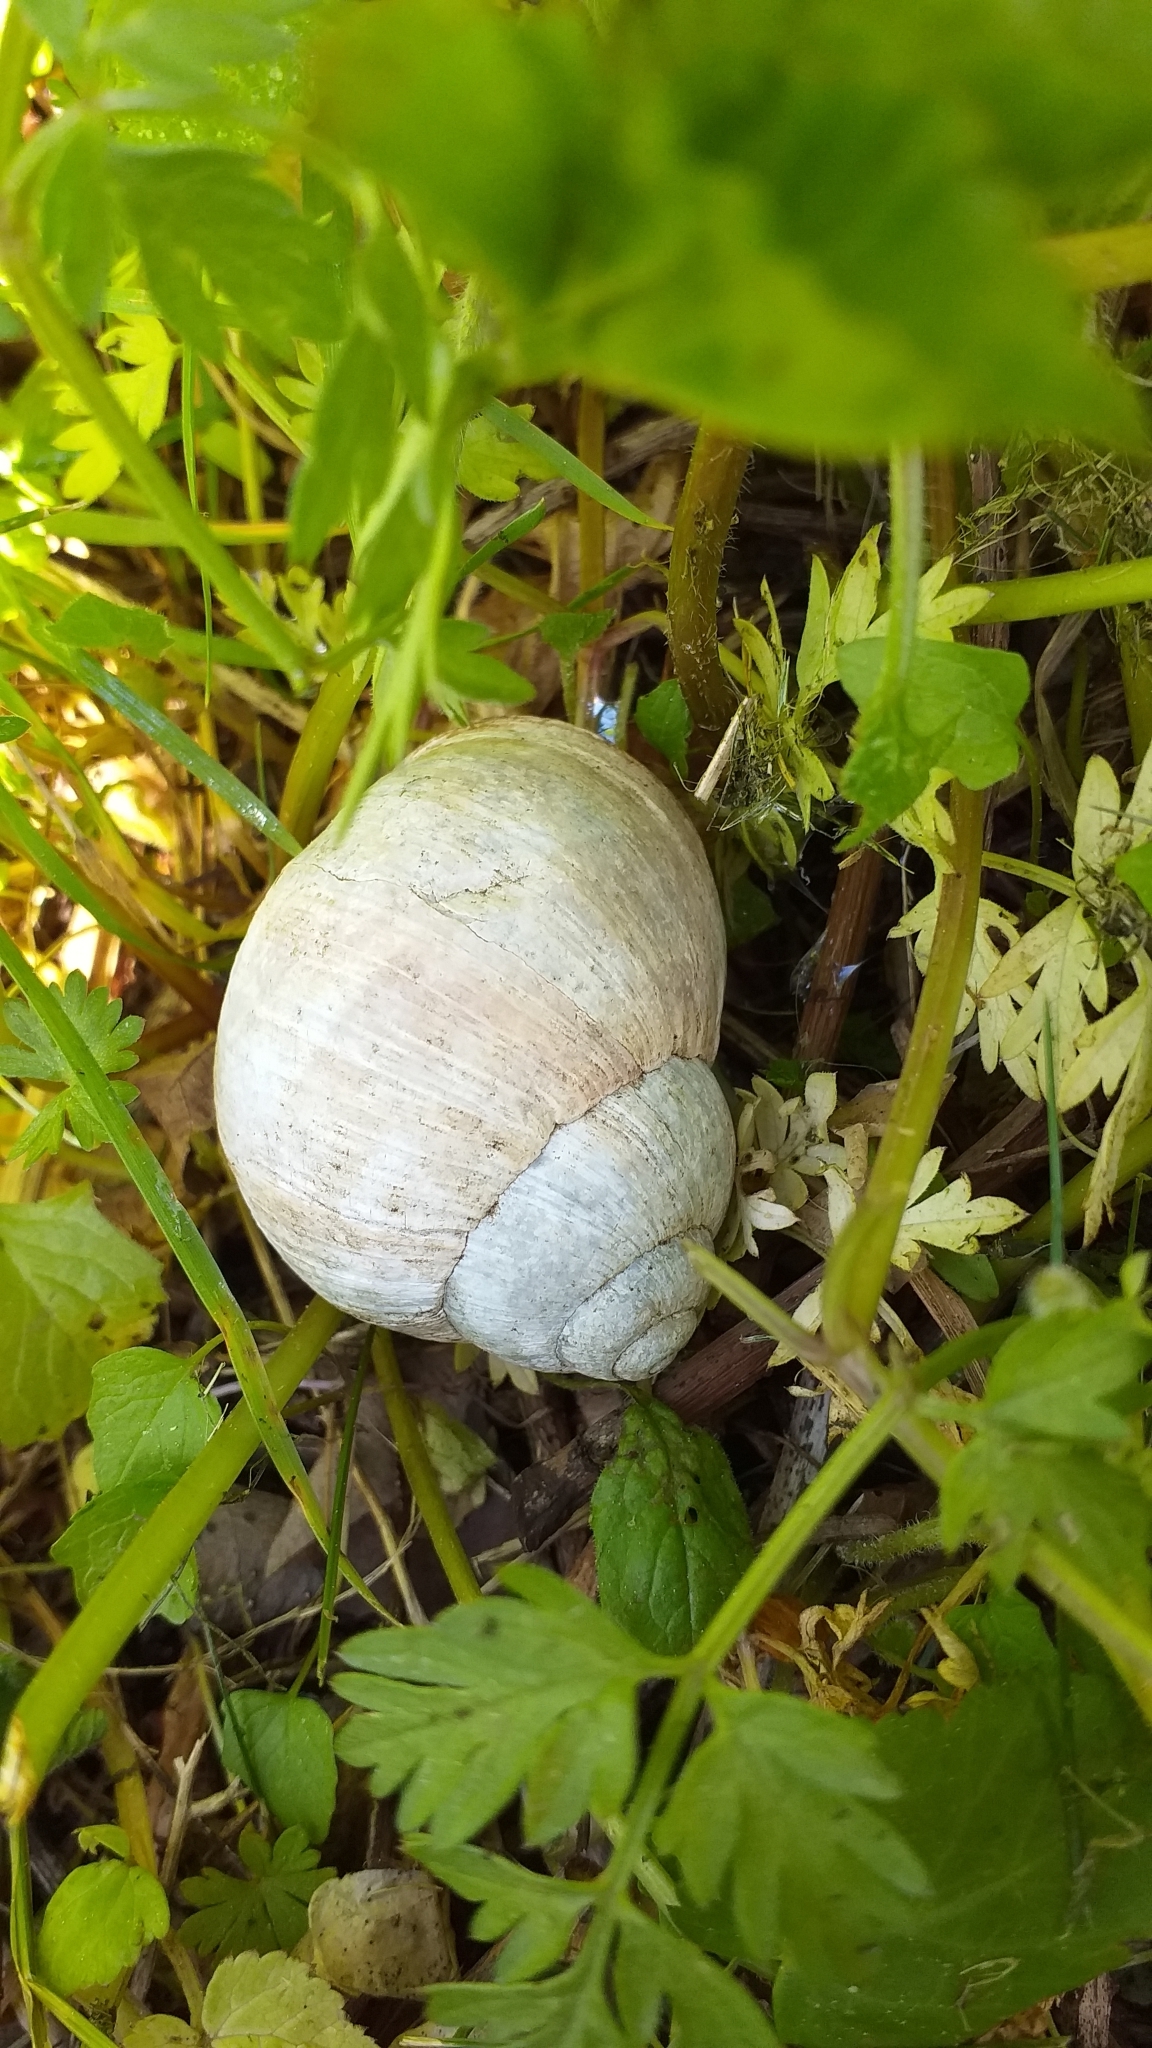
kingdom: Animalia
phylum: Mollusca
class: Gastropoda
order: Stylommatophora
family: Helicidae
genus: Helix
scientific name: Helix pomatia
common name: Roman snail
